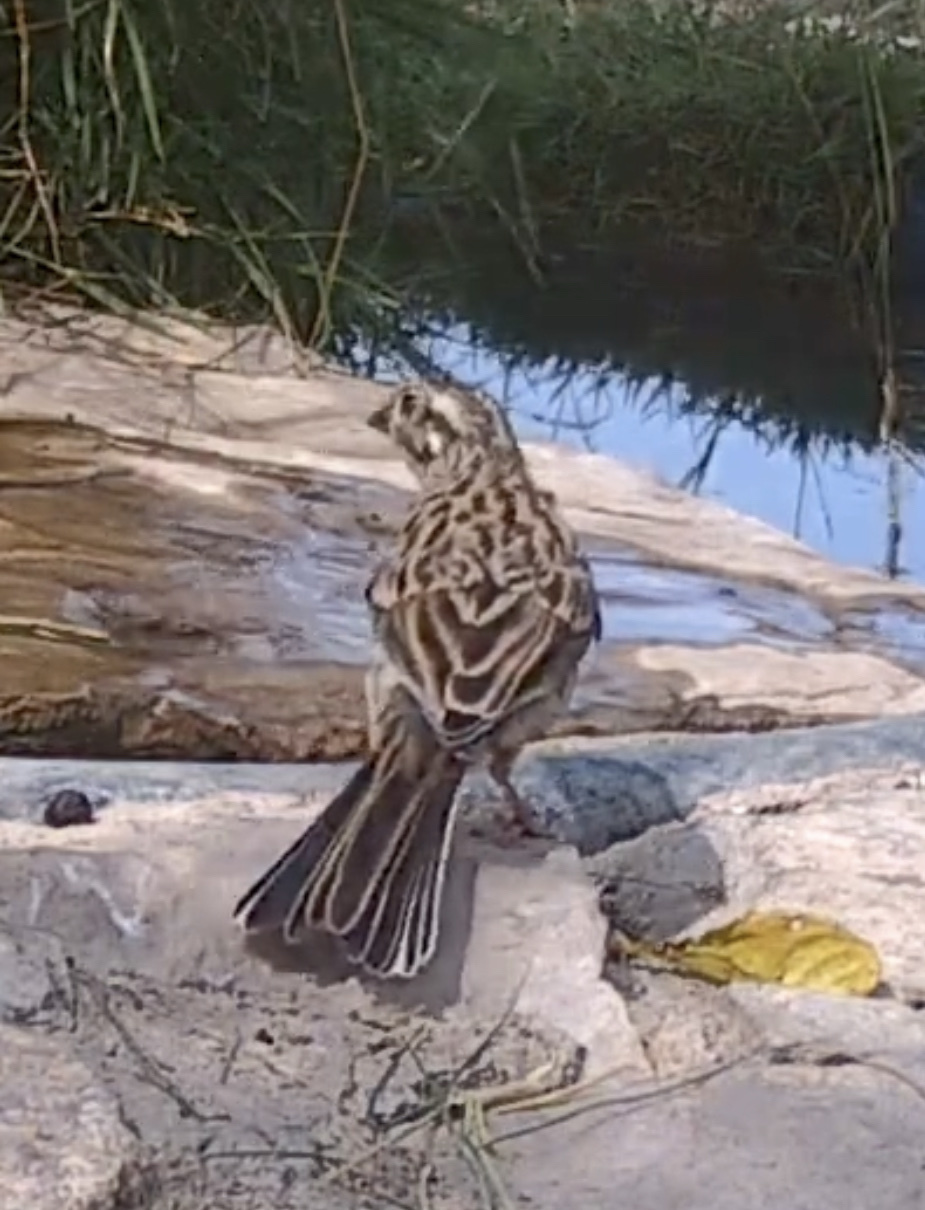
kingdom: Animalia
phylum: Chordata
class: Aves
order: Passeriformes
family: Emberizidae
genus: Emberiza
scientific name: Emberiza cia
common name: Rock bunting
